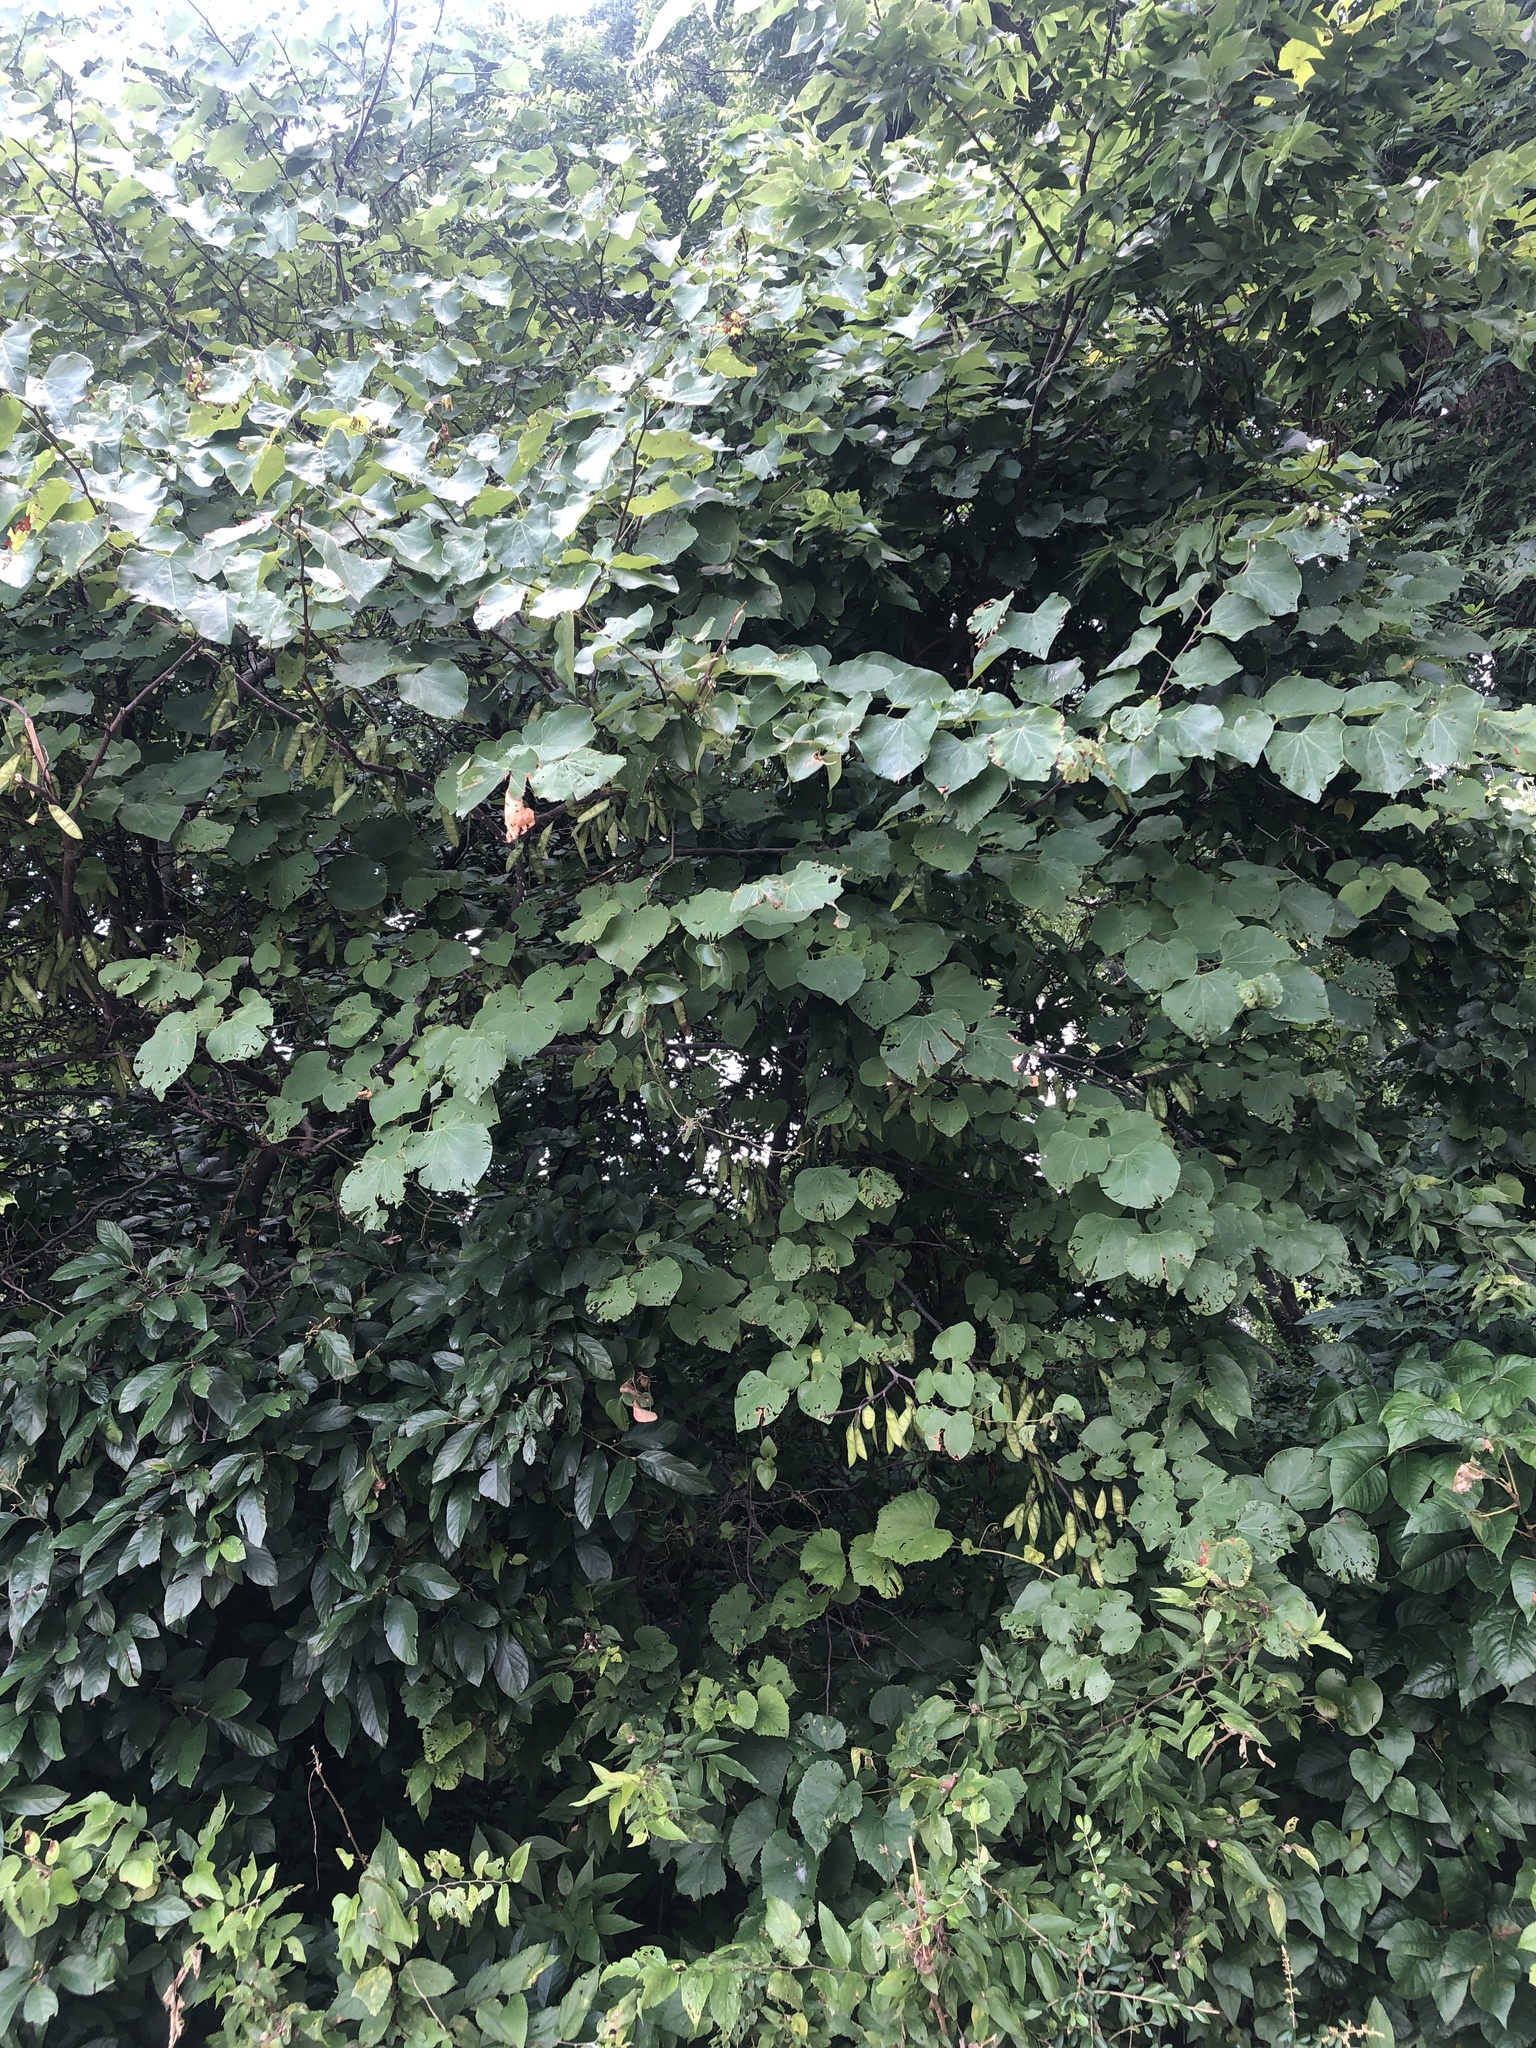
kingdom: Plantae
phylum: Tracheophyta
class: Magnoliopsida
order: Fabales
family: Fabaceae
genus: Cercis
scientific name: Cercis canadensis
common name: Eastern redbud
